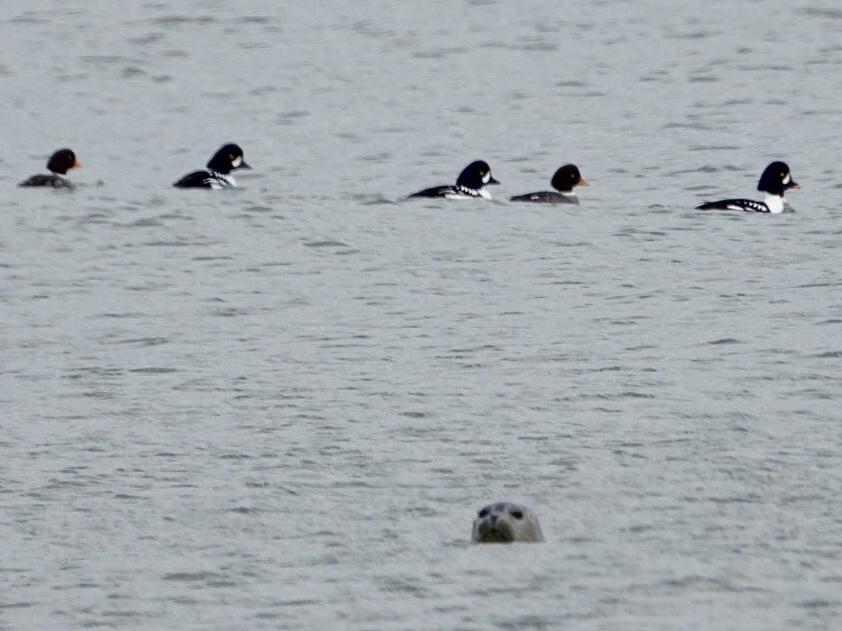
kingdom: Animalia
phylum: Chordata
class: Mammalia
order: Carnivora
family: Phocidae
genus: Phoca
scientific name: Phoca vitulina
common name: Harbor seal
